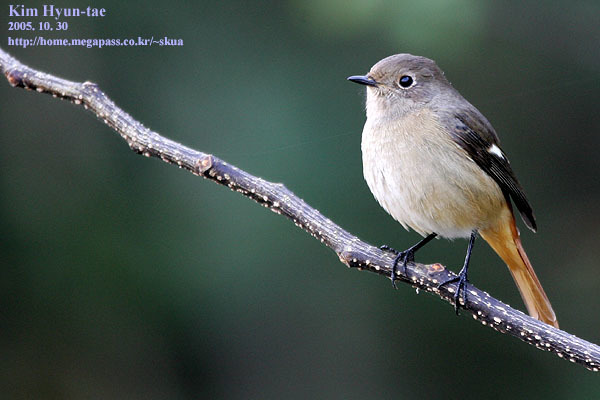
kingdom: Animalia
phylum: Chordata
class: Aves
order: Passeriformes
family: Muscicapidae
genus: Phoenicurus
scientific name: Phoenicurus auroreus
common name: Daurian redstart
